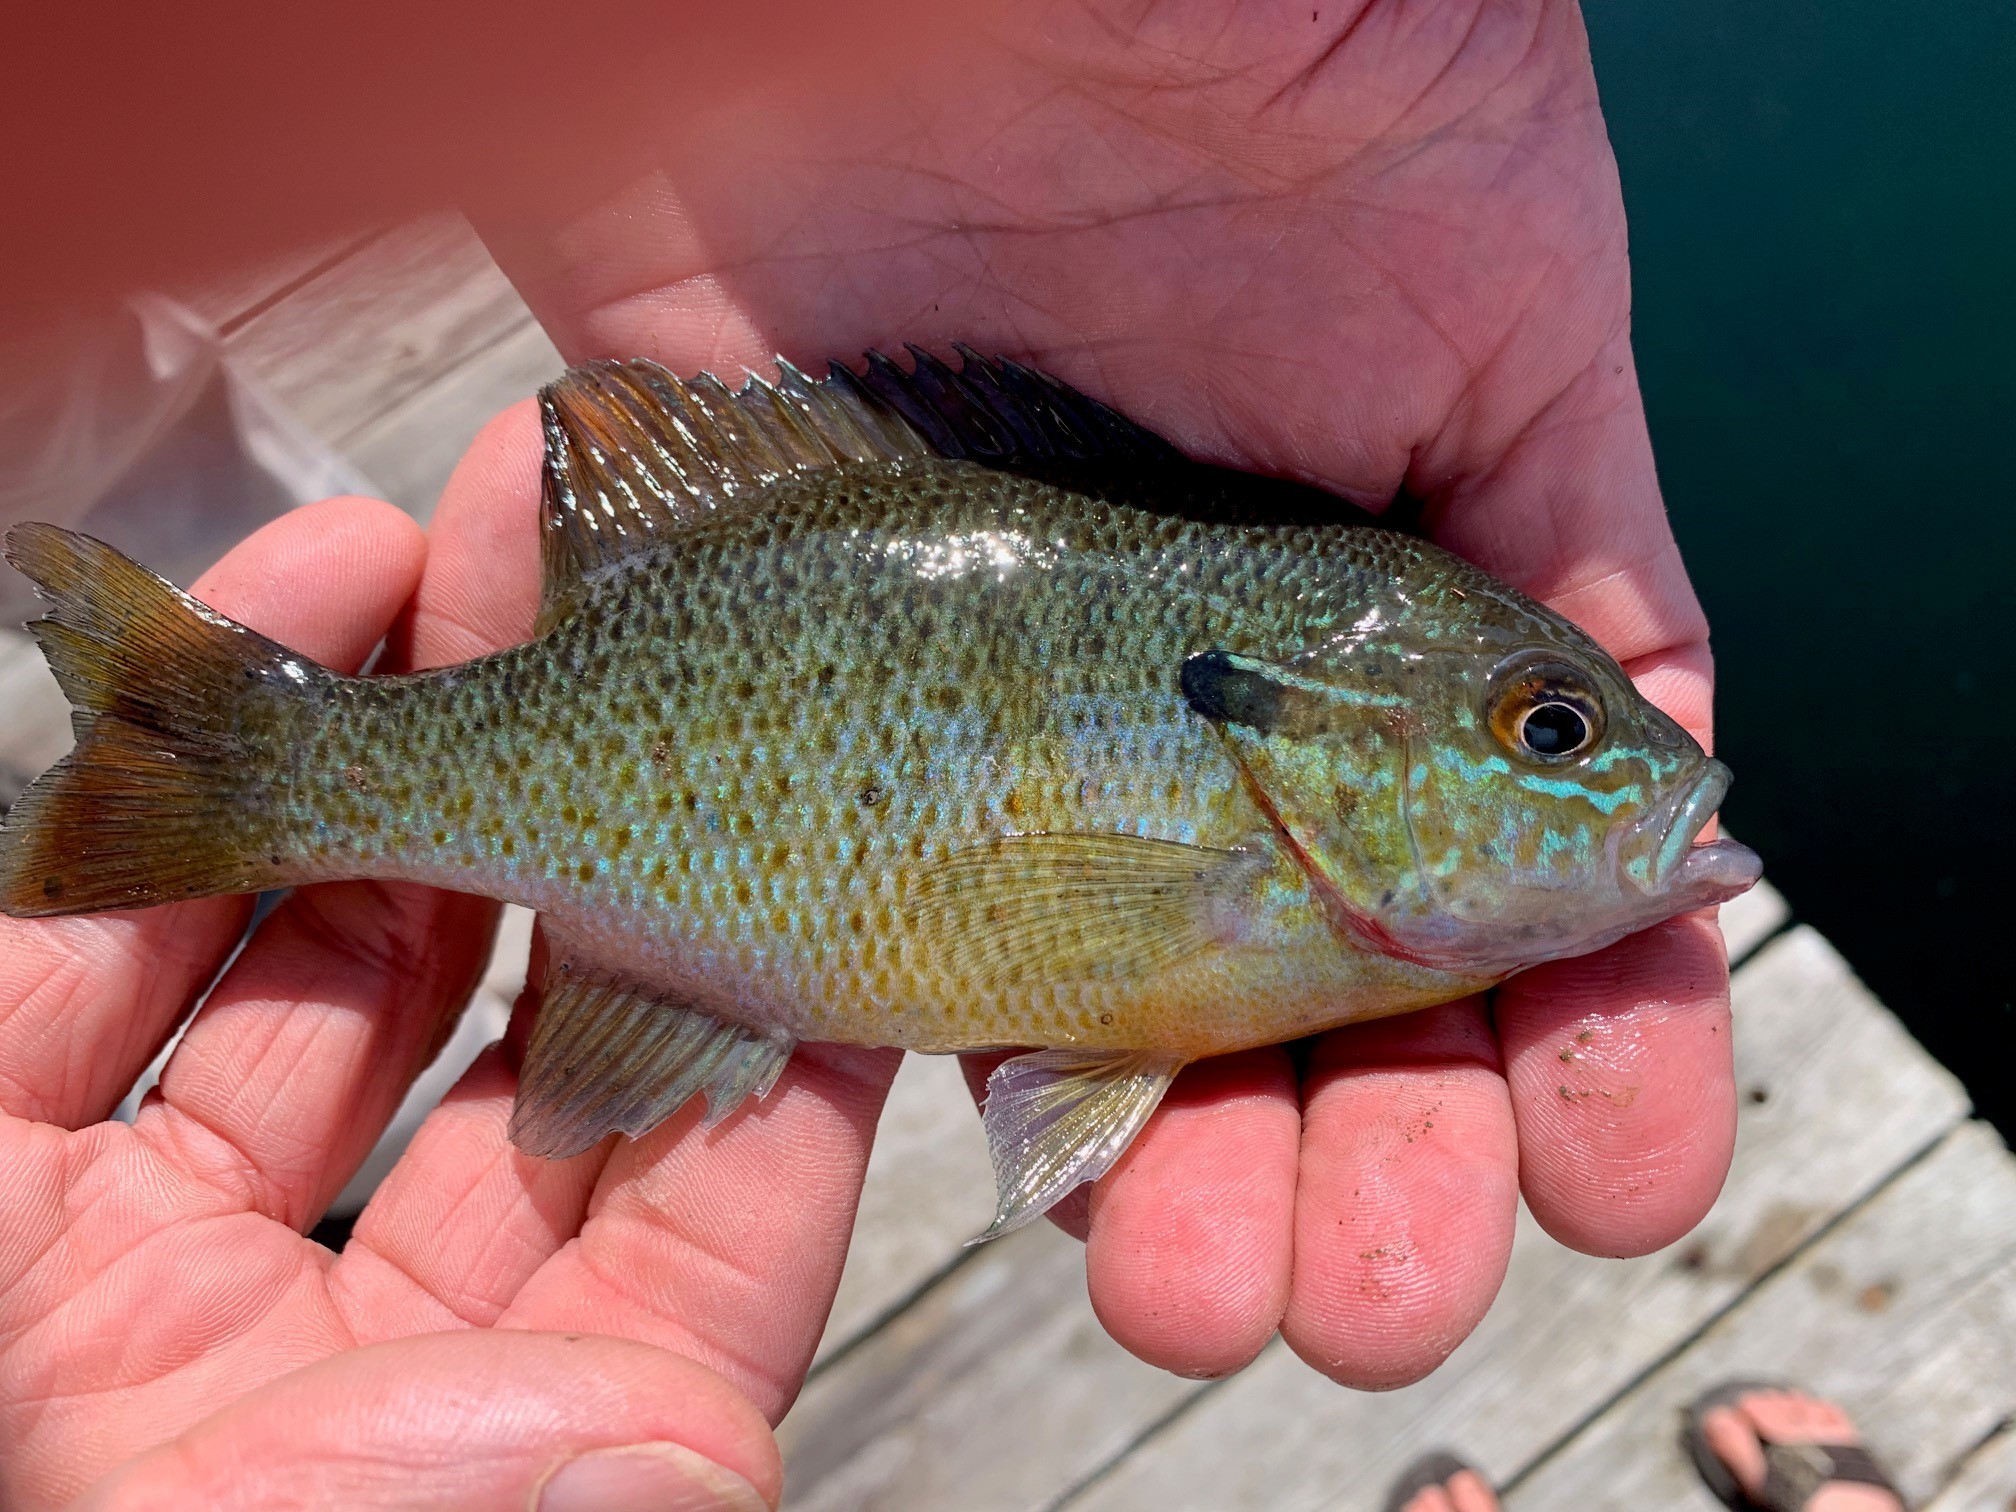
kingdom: Animalia
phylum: Chordata
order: Perciformes
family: Centrarchidae
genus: Lepomis
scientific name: Lepomis auritus
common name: Redbreast sunfish
